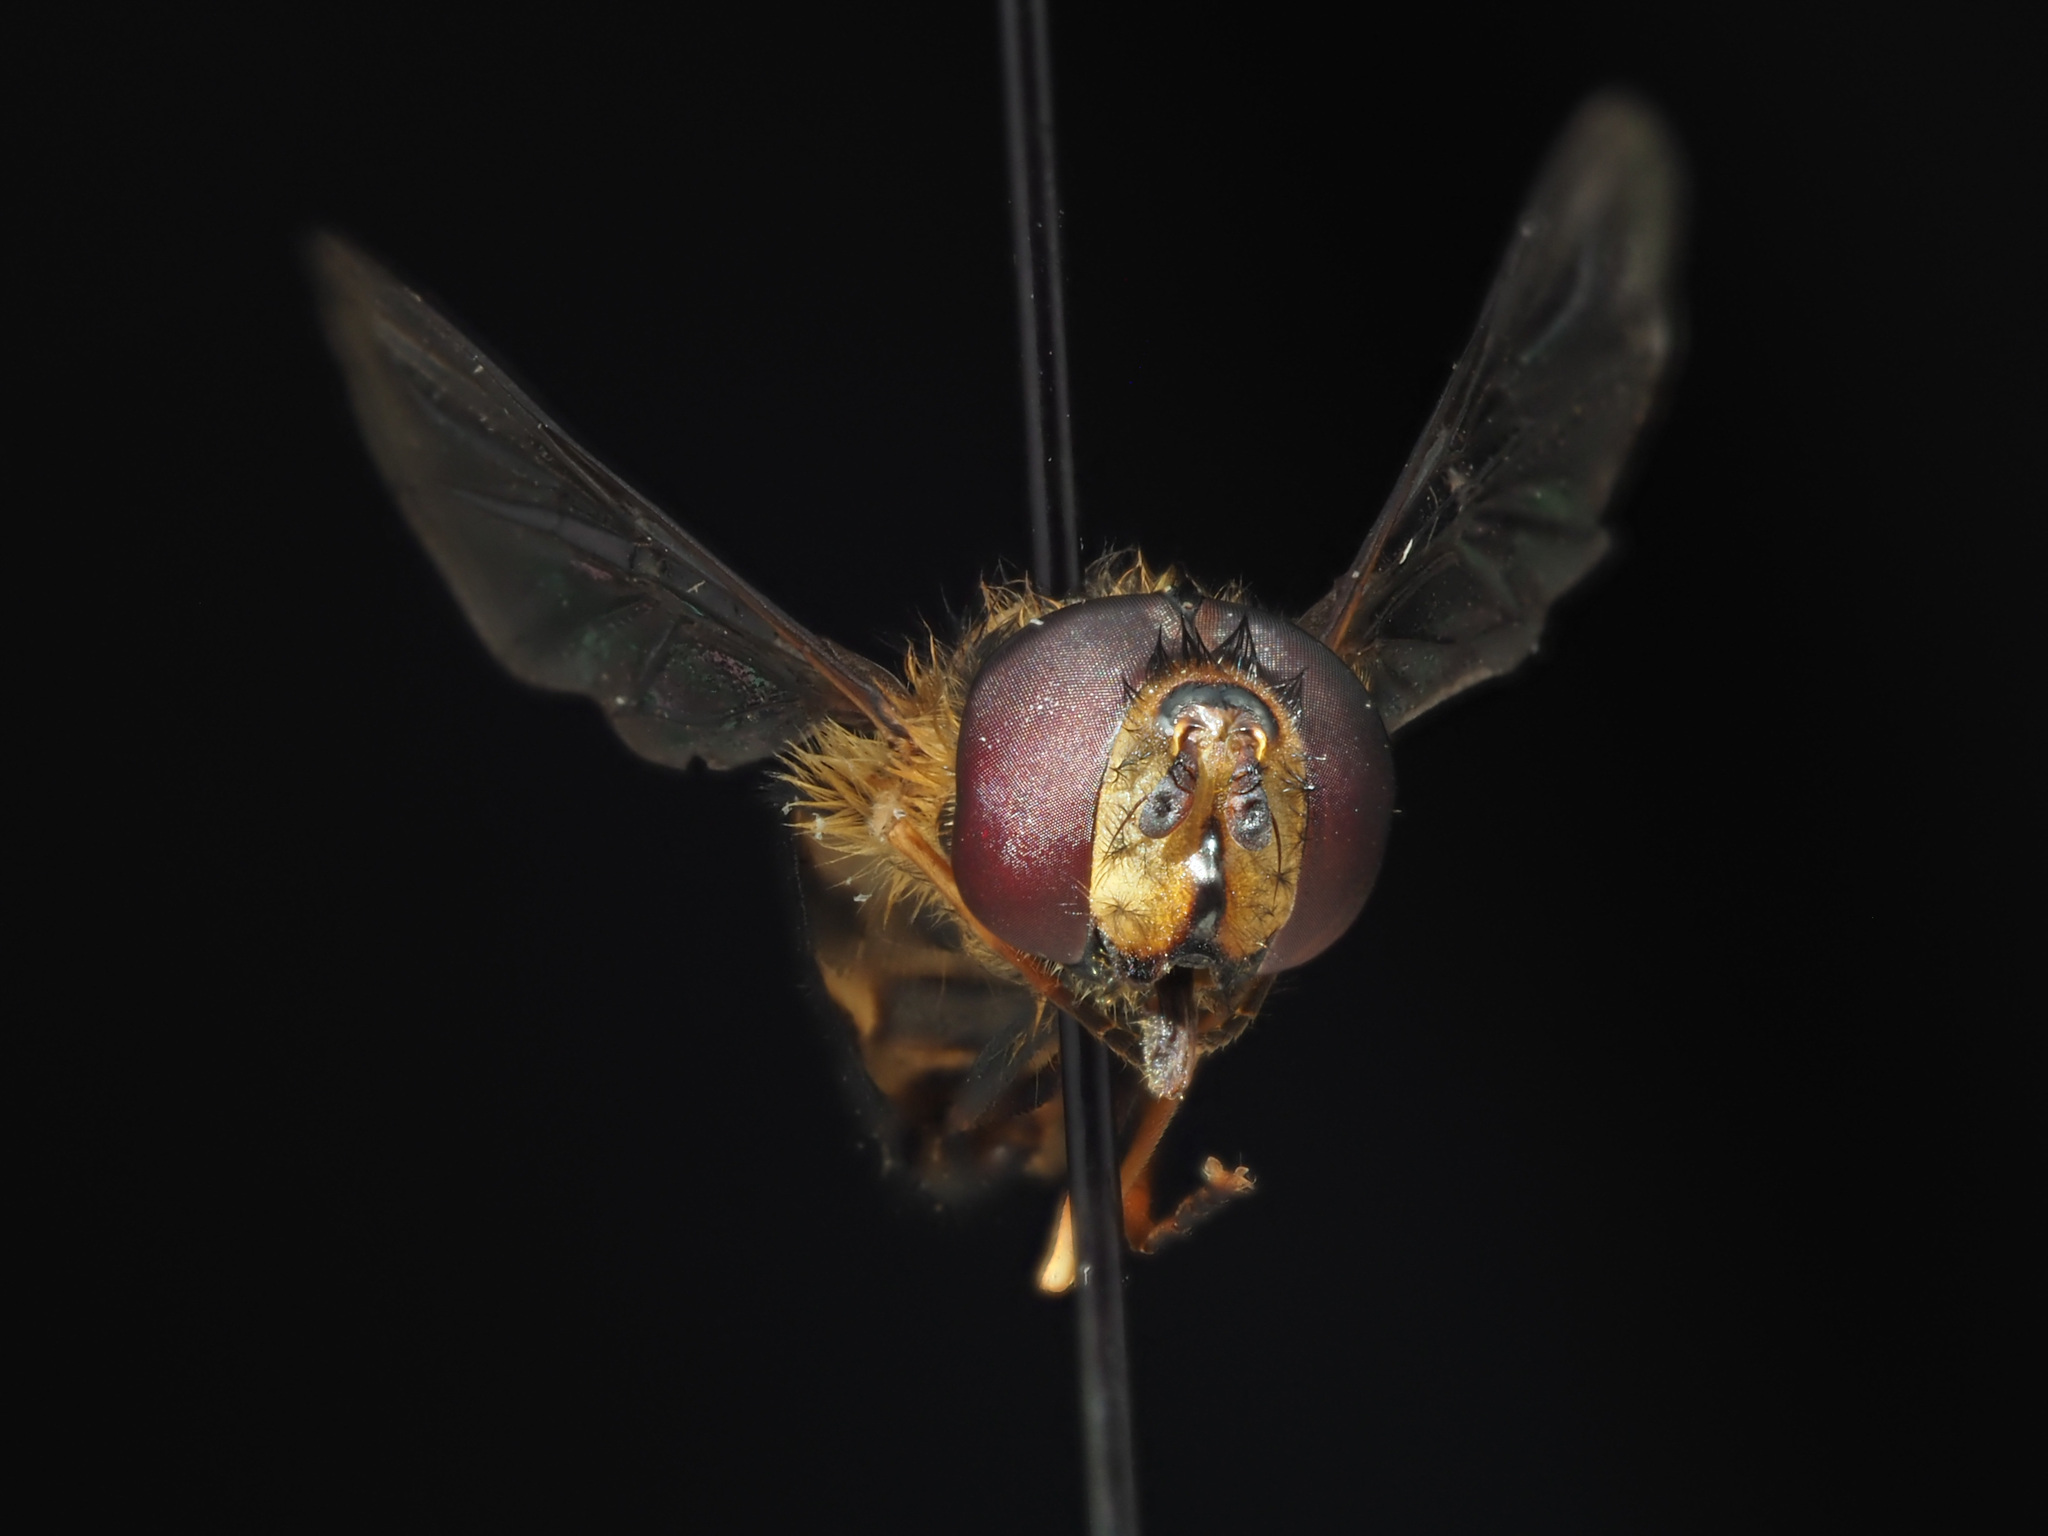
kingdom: Animalia
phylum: Arthropoda
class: Insecta
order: Diptera
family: Syrphidae
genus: Lapposyrphus
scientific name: Lapposyrphus lapponicus
